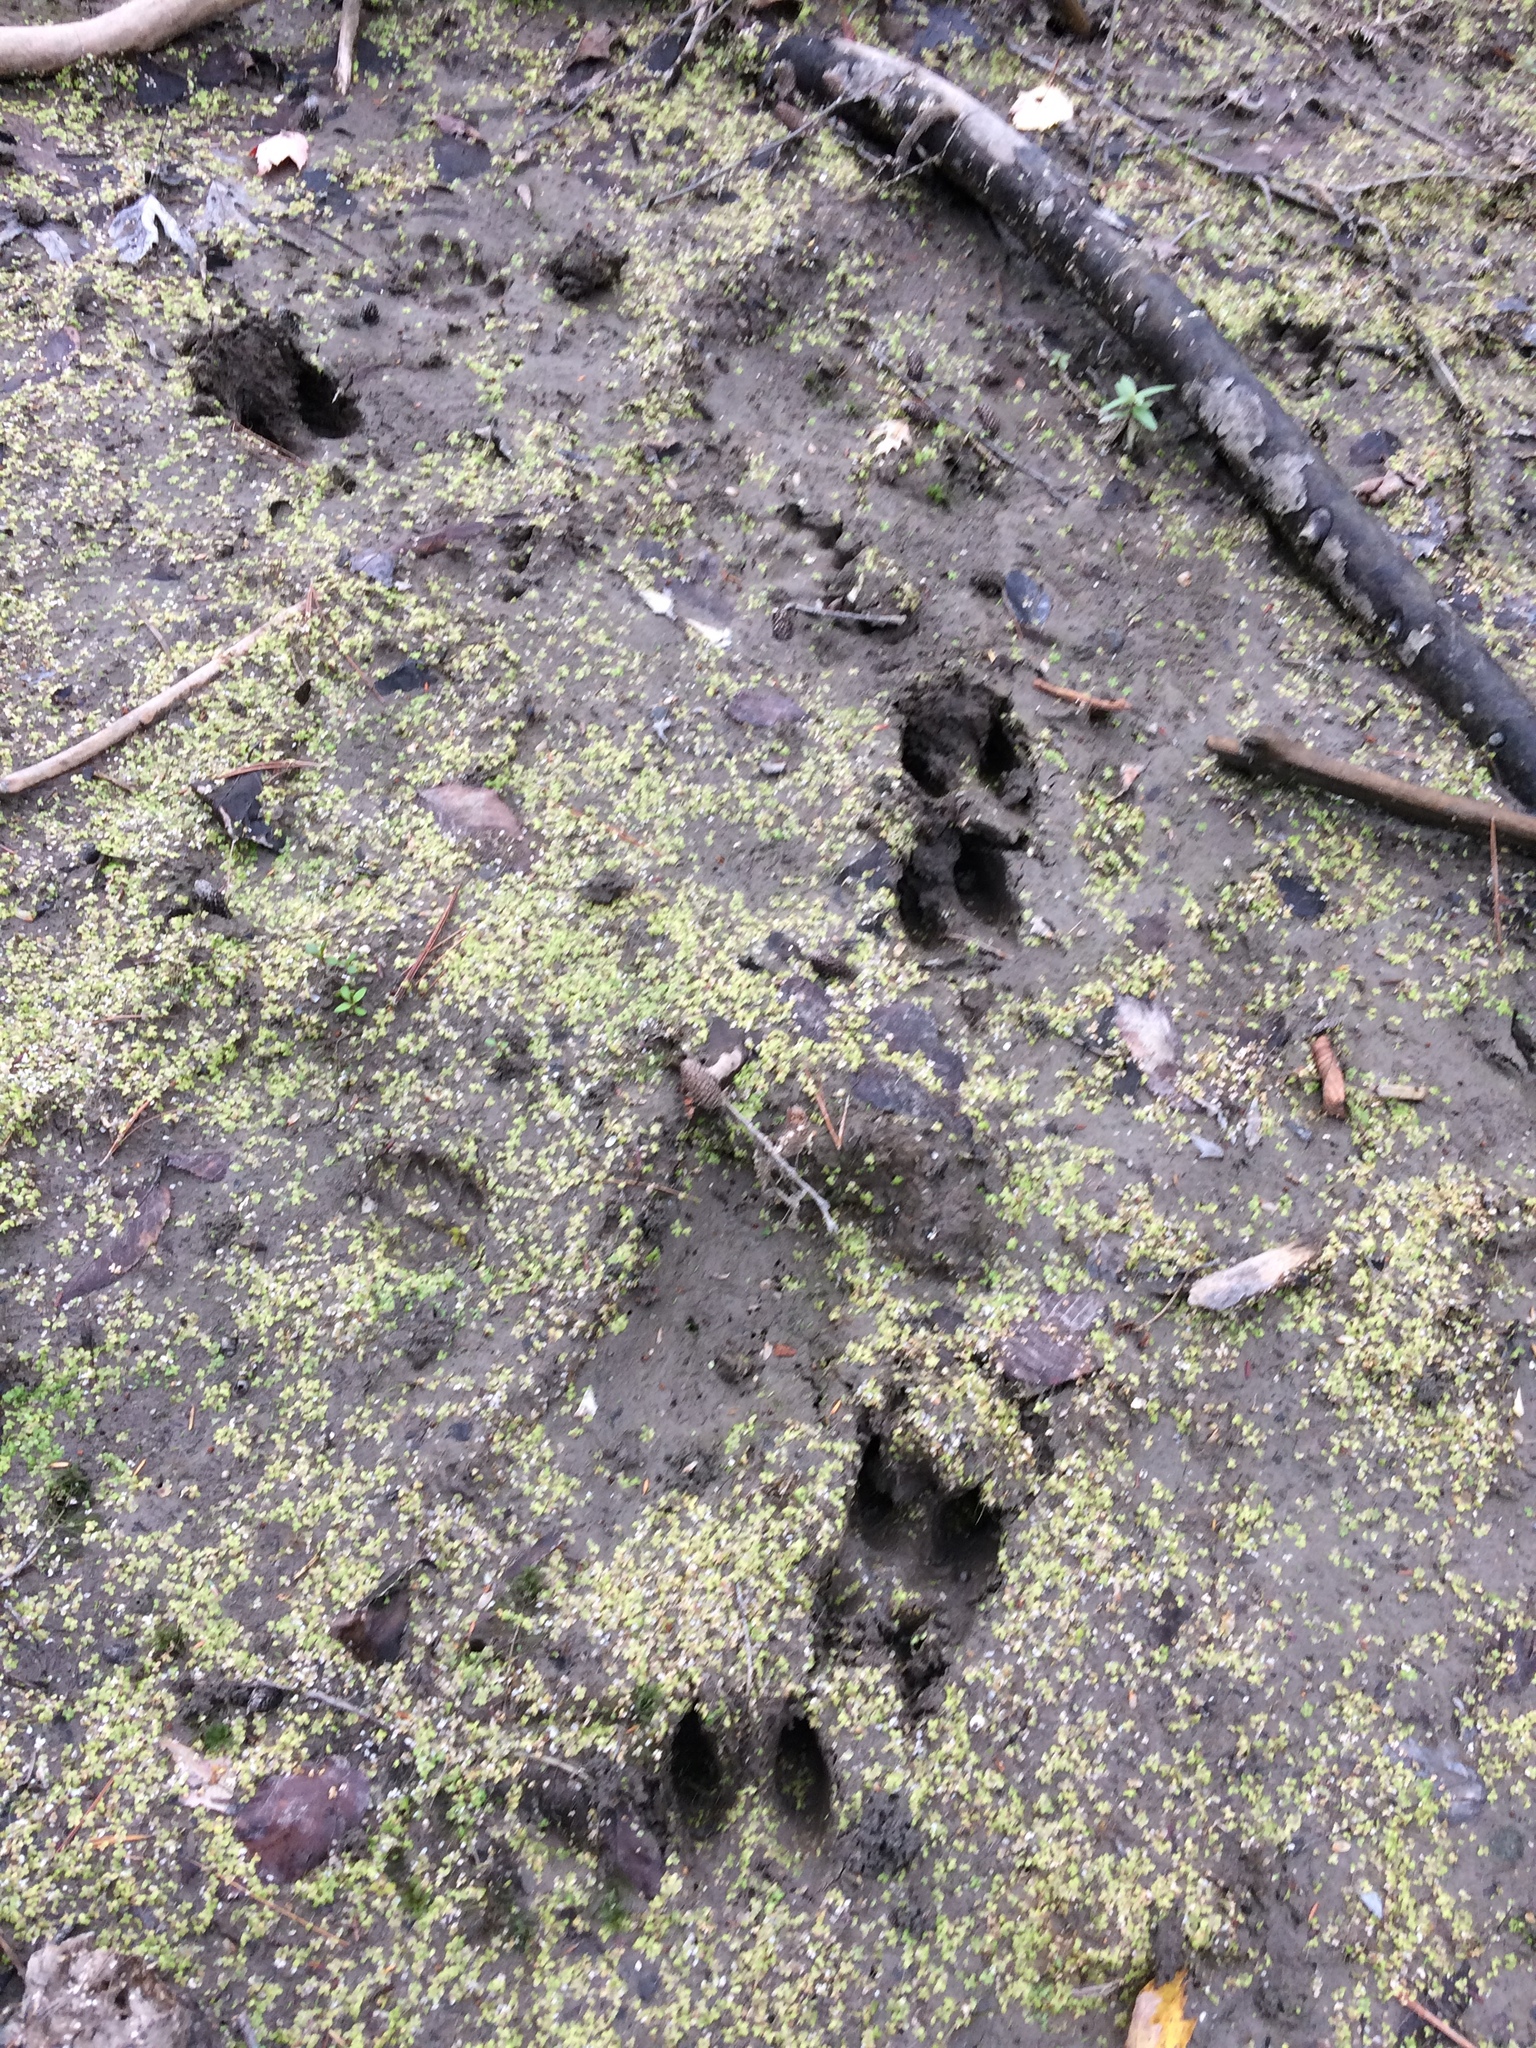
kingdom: Animalia
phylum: Chordata
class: Mammalia
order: Artiodactyla
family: Cervidae
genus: Odocoileus
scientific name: Odocoileus virginianus
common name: White-tailed deer
